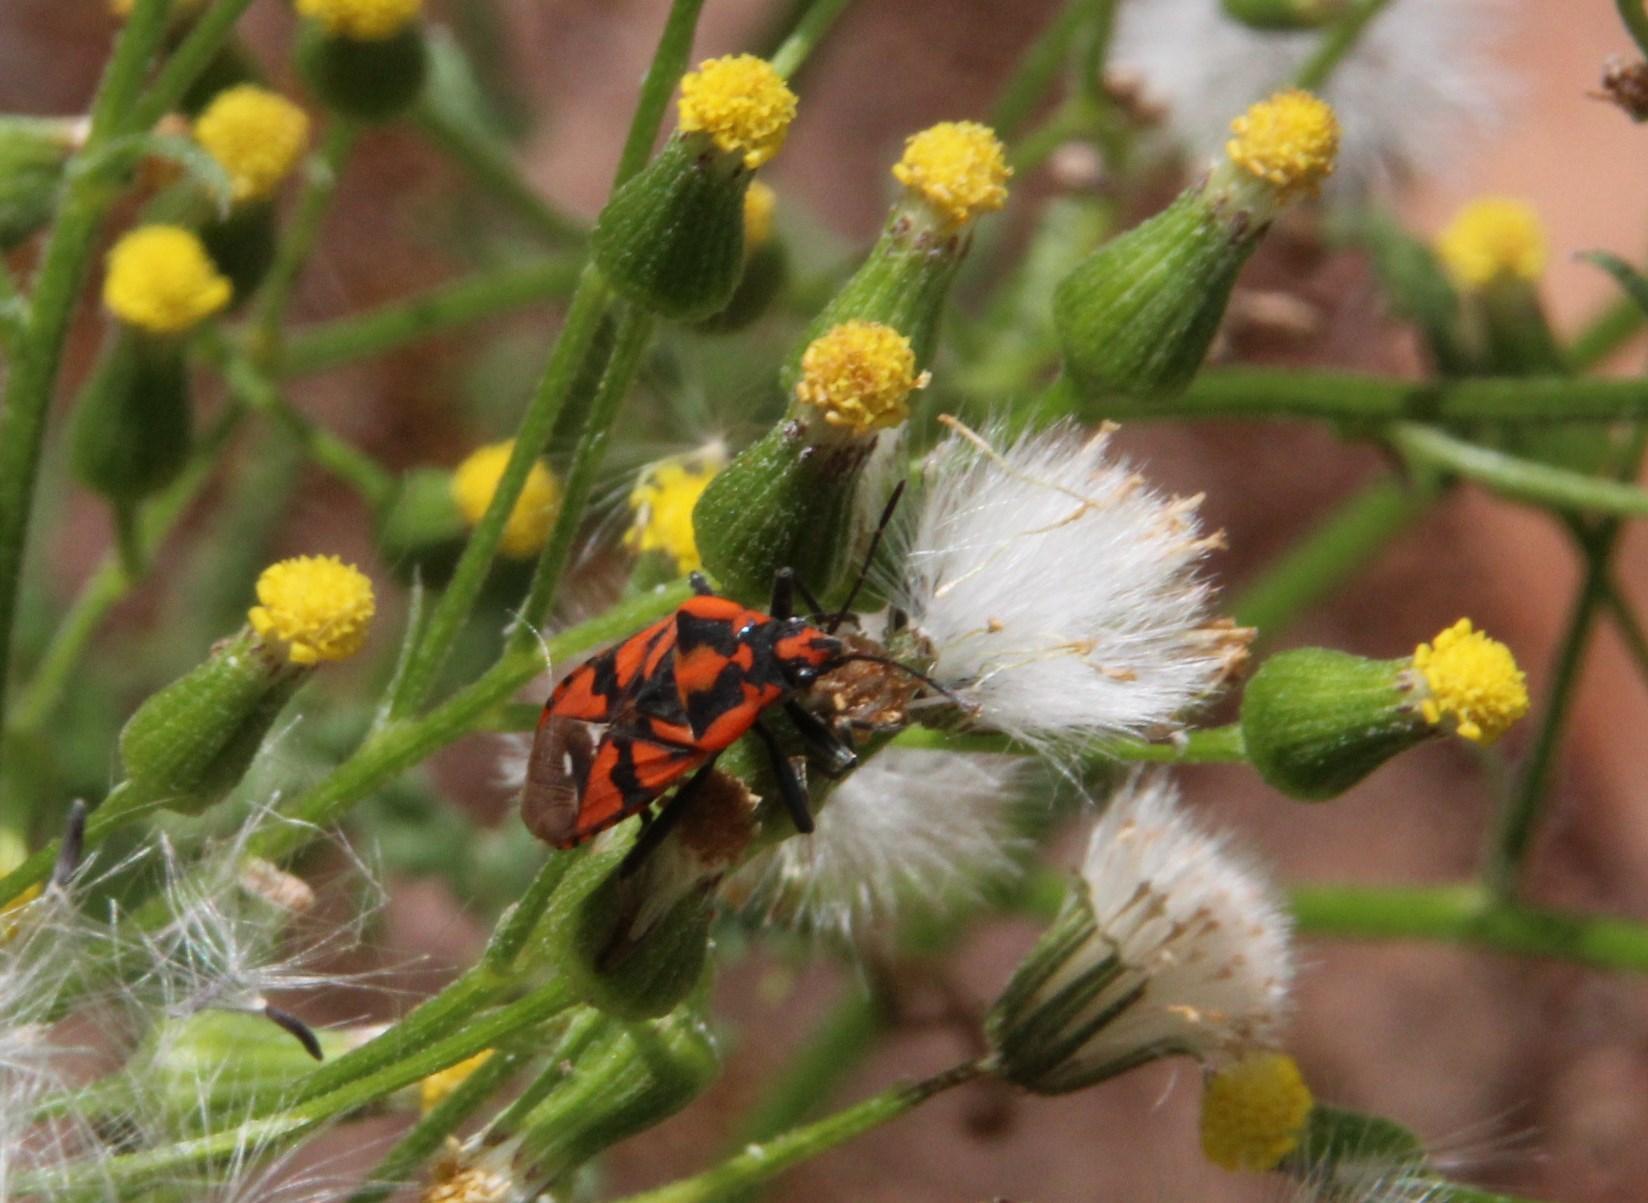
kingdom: Animalia
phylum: Arthropoda
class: Insecta
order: Hemiptera
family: Lygaeidae
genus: Spilostethus
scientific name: Spilostethus pandurus
